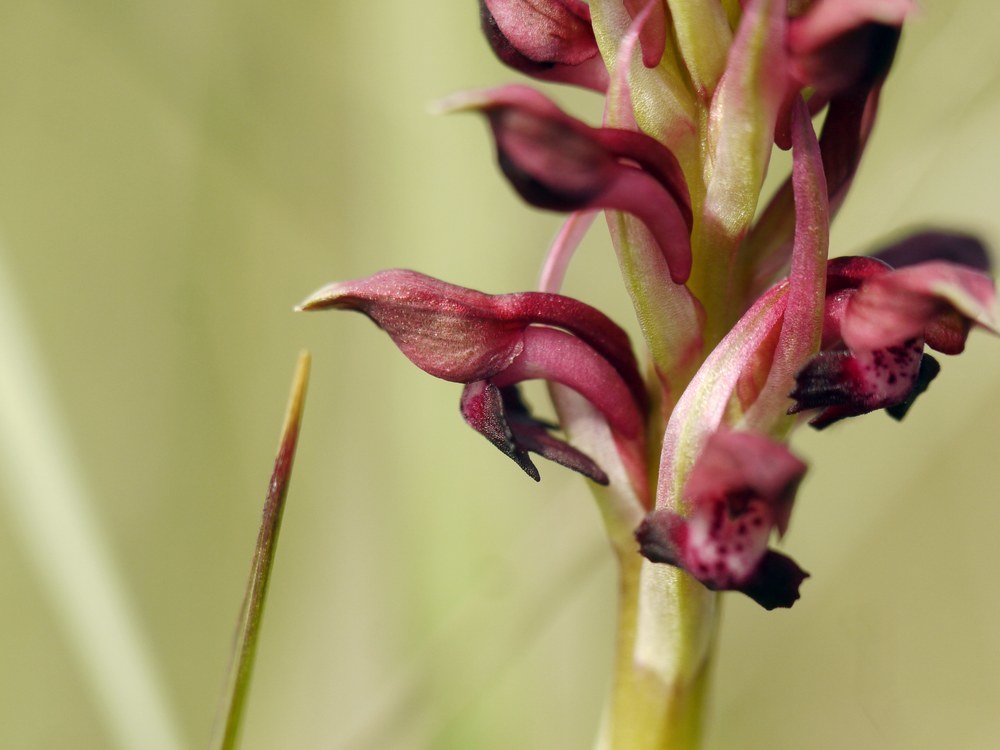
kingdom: Plantae
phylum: Tracheophyta
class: Liliopsida
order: Asparagales
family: Orchidaceae
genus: Anacamptis
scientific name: Anacamptis coriophora
